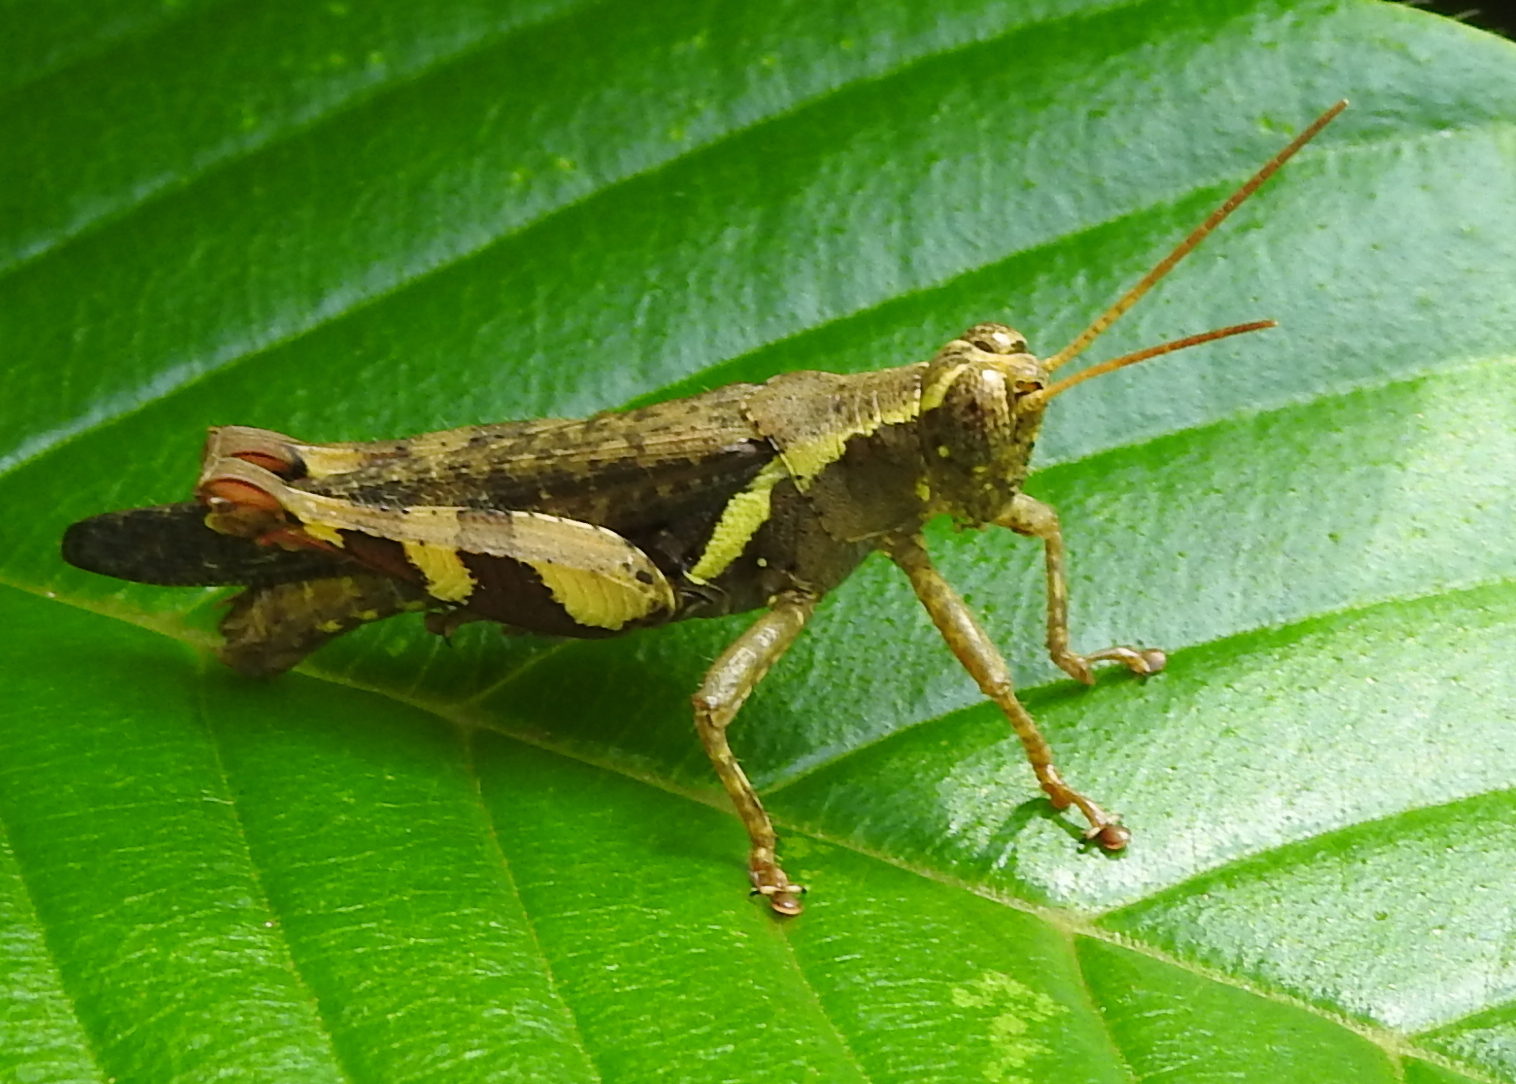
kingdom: Animalia
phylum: Arthropoda
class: Insecta
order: Orthoptera
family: Acrididae
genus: Xenocatantops
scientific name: Xenocatantops humile
